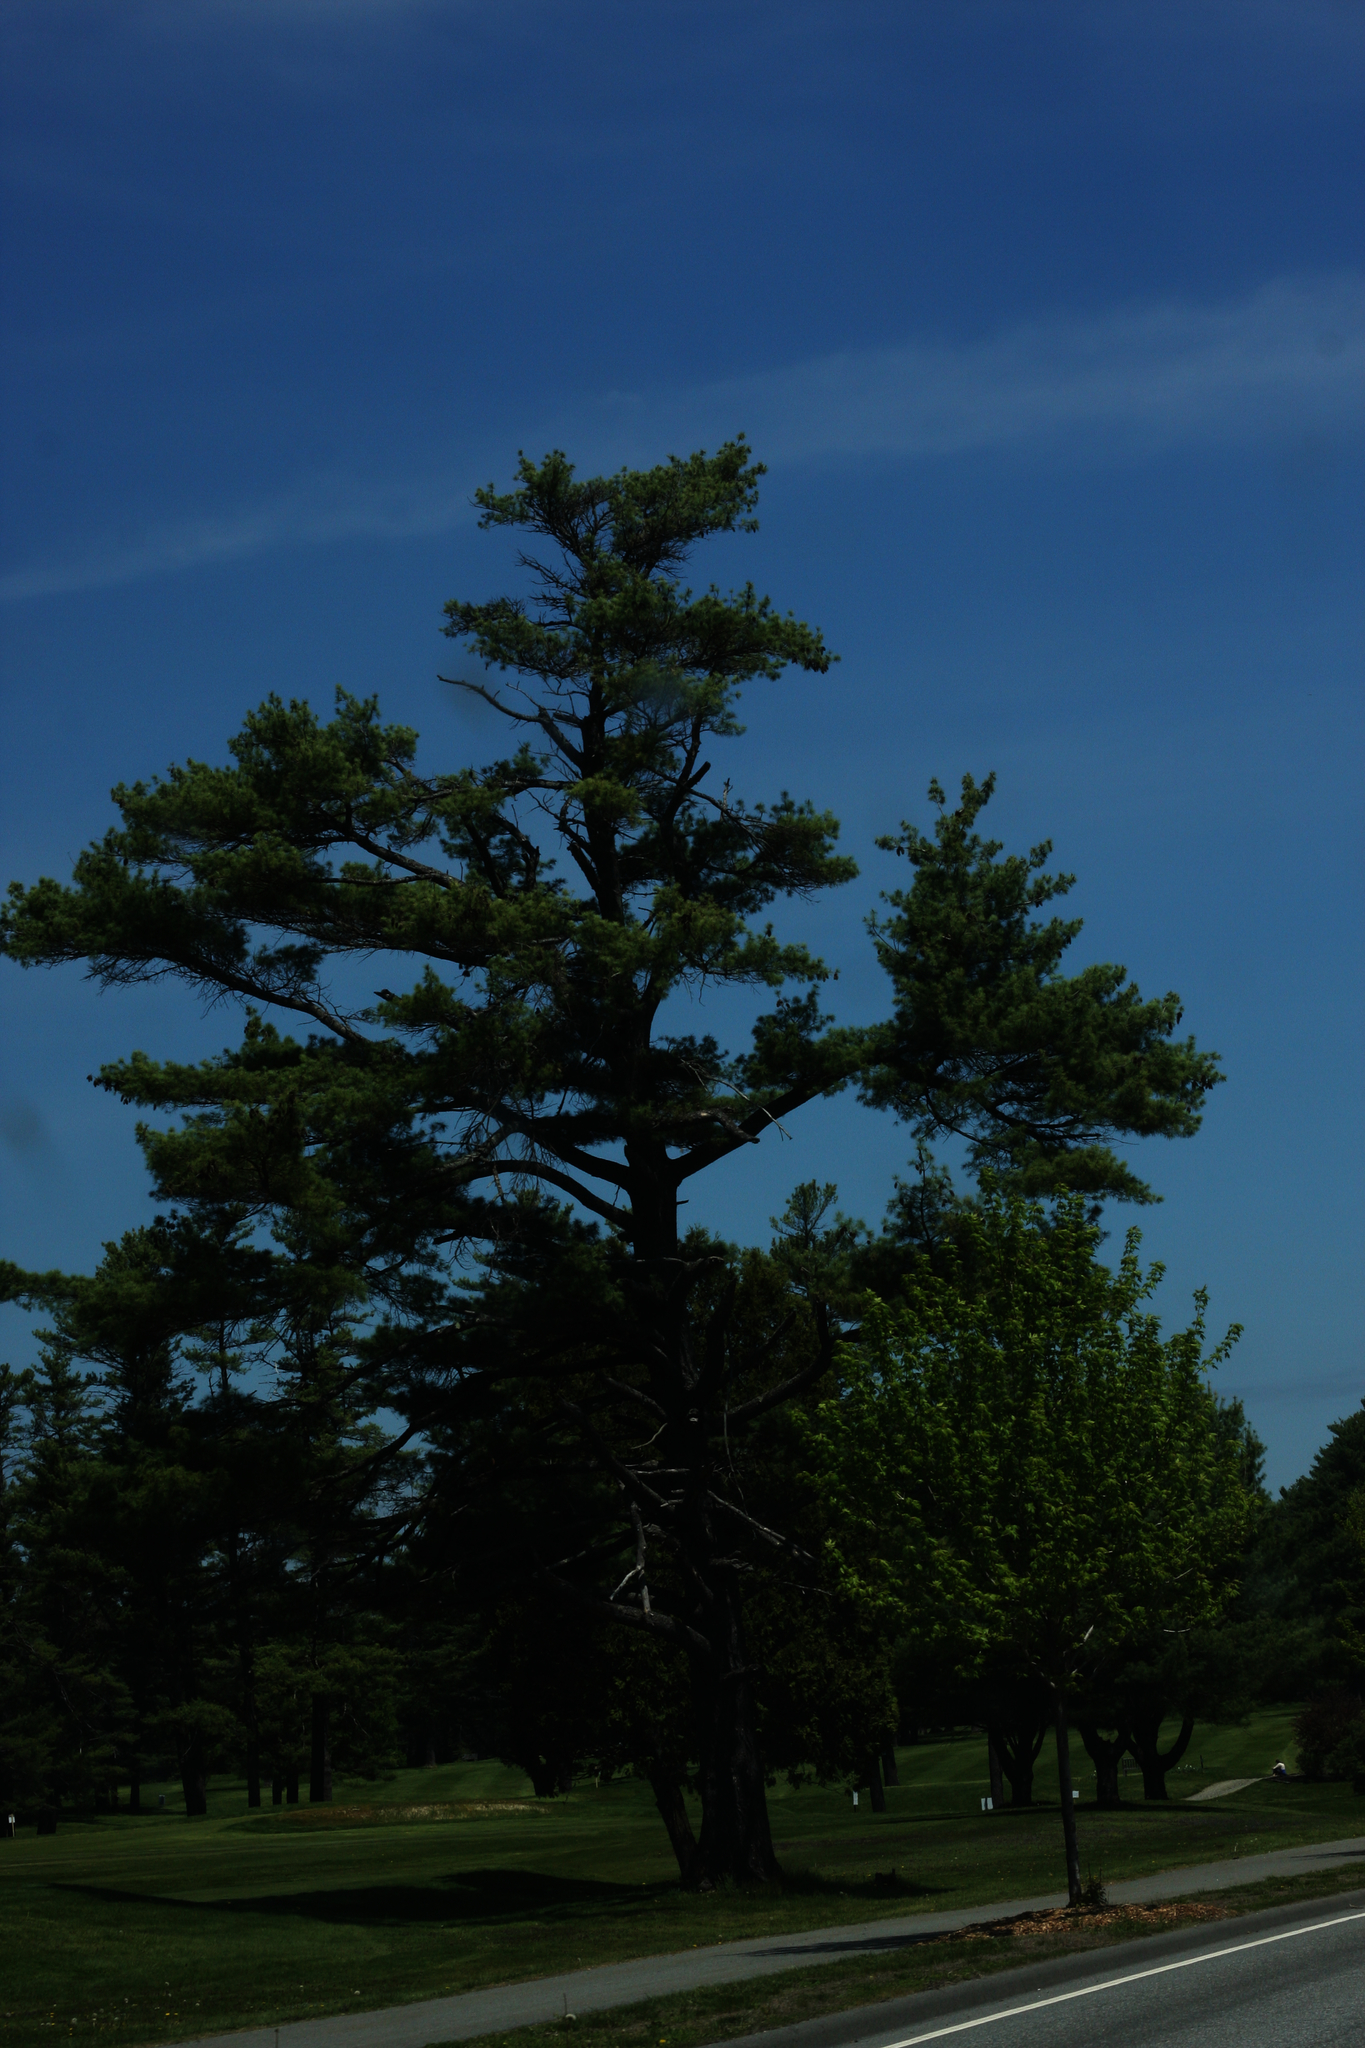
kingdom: Plantae
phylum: Tracheophyta
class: Pinopsida
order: Pinales
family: Pinaceae
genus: Pinus
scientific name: Pinus strobus
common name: Weymouth pine
